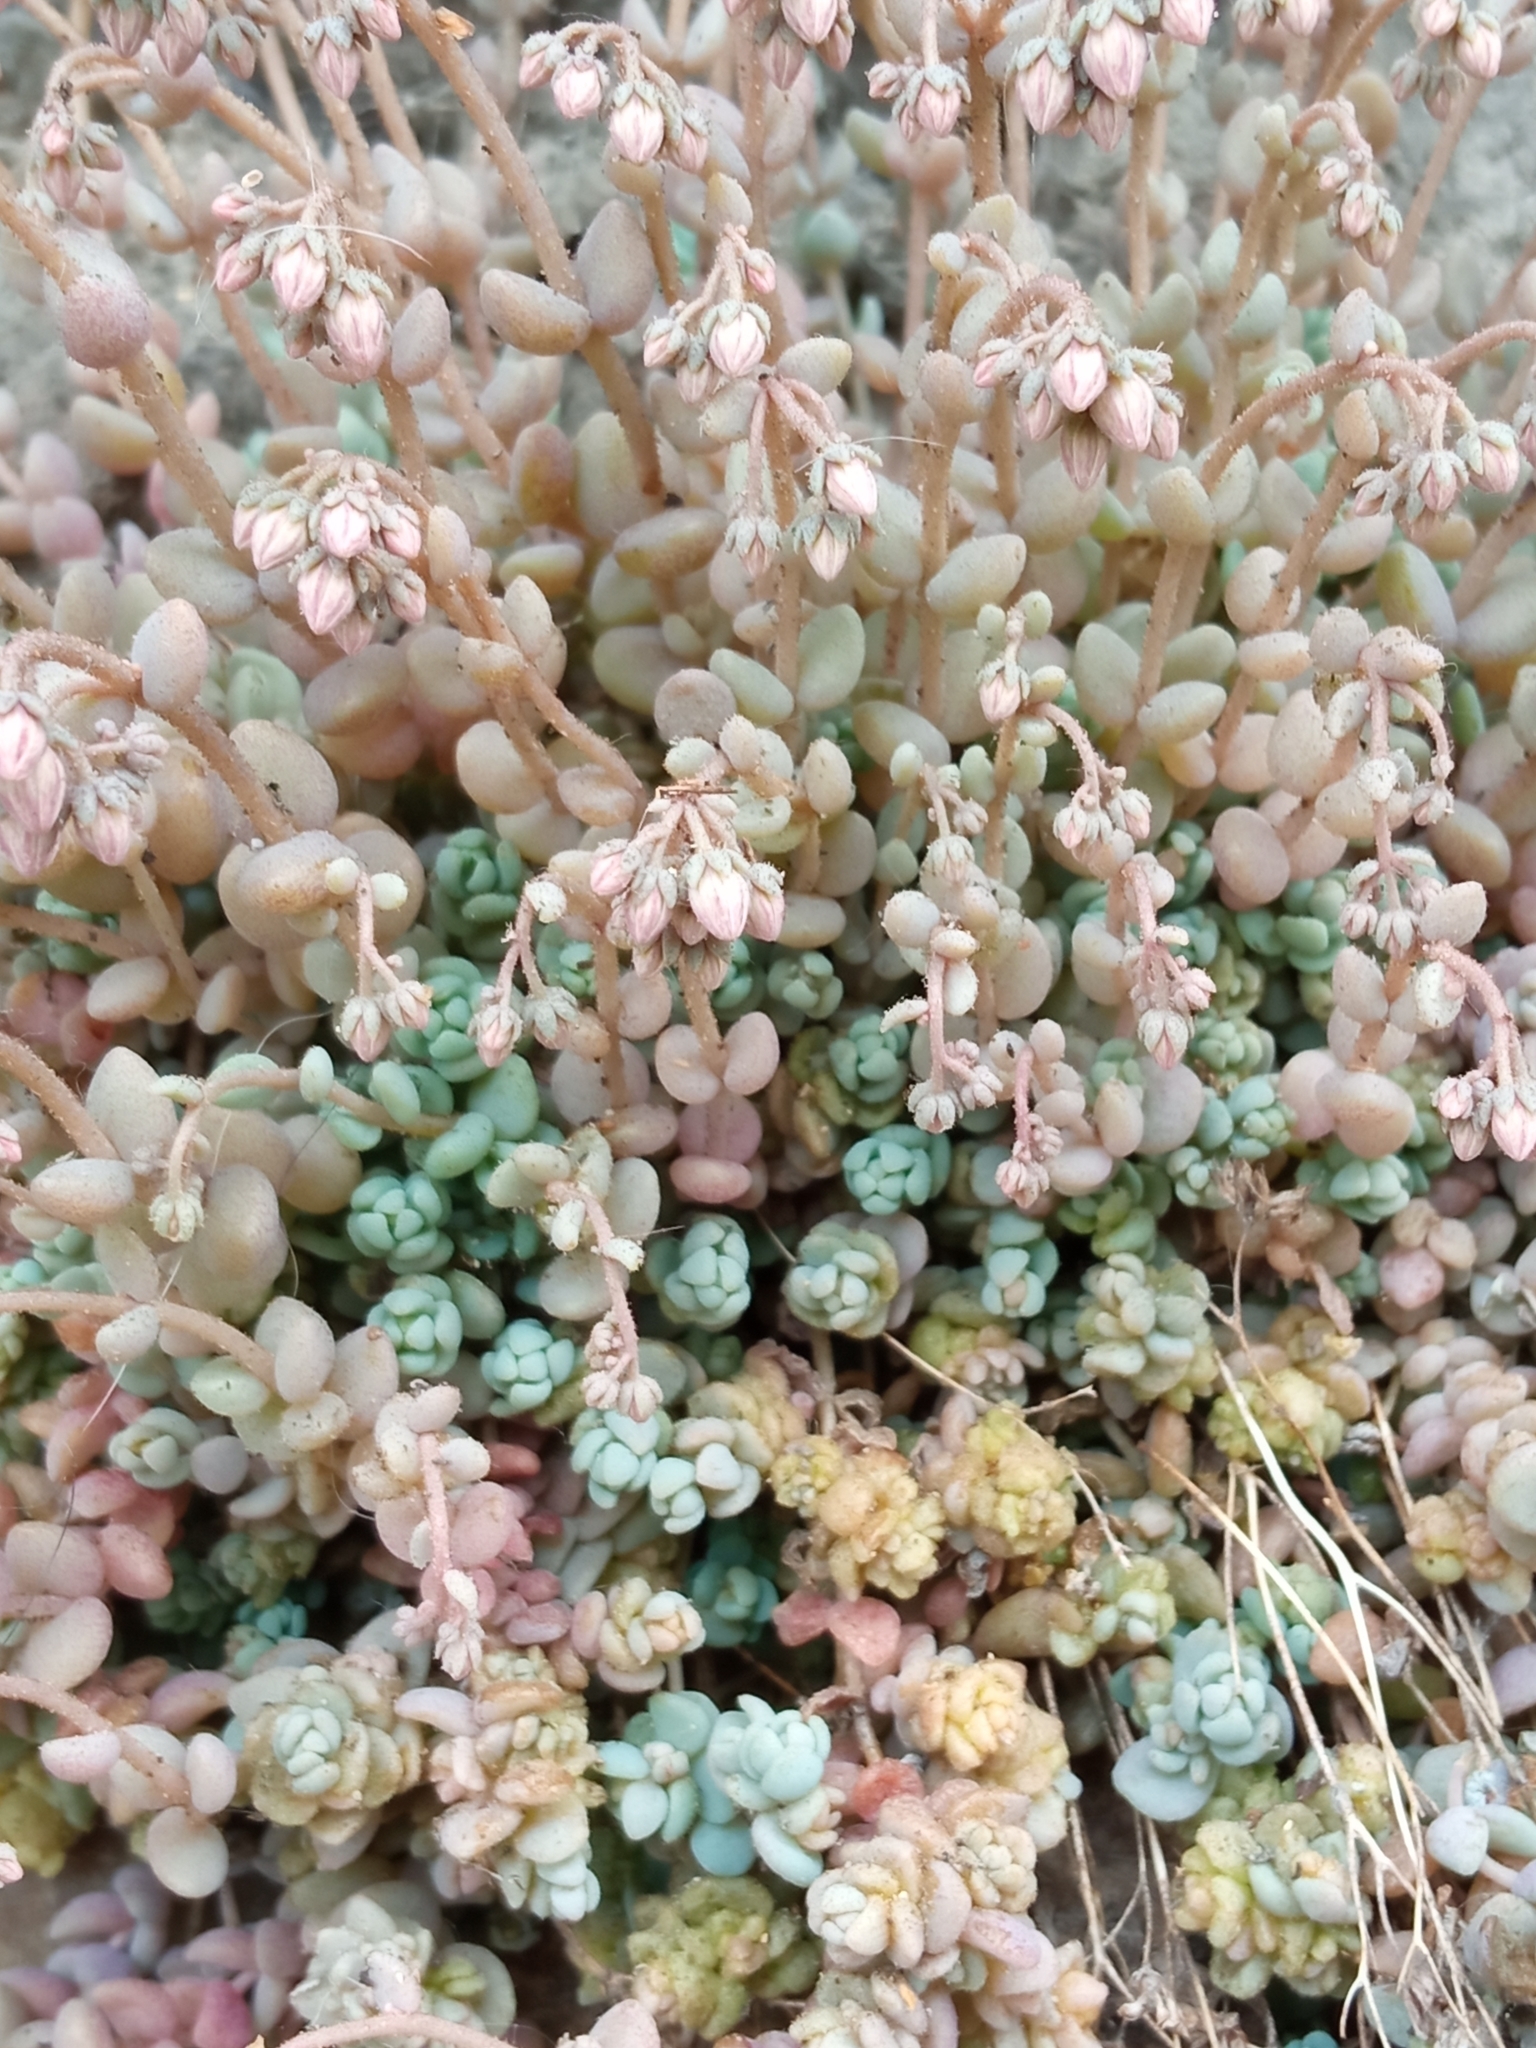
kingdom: Plantae
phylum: Tracheophyta
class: Magnoliopsida
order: Saxifragales
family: Crassulaceae
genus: Sedum
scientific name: Sedum dasyphyllum
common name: Thick-leaf stonecrop
